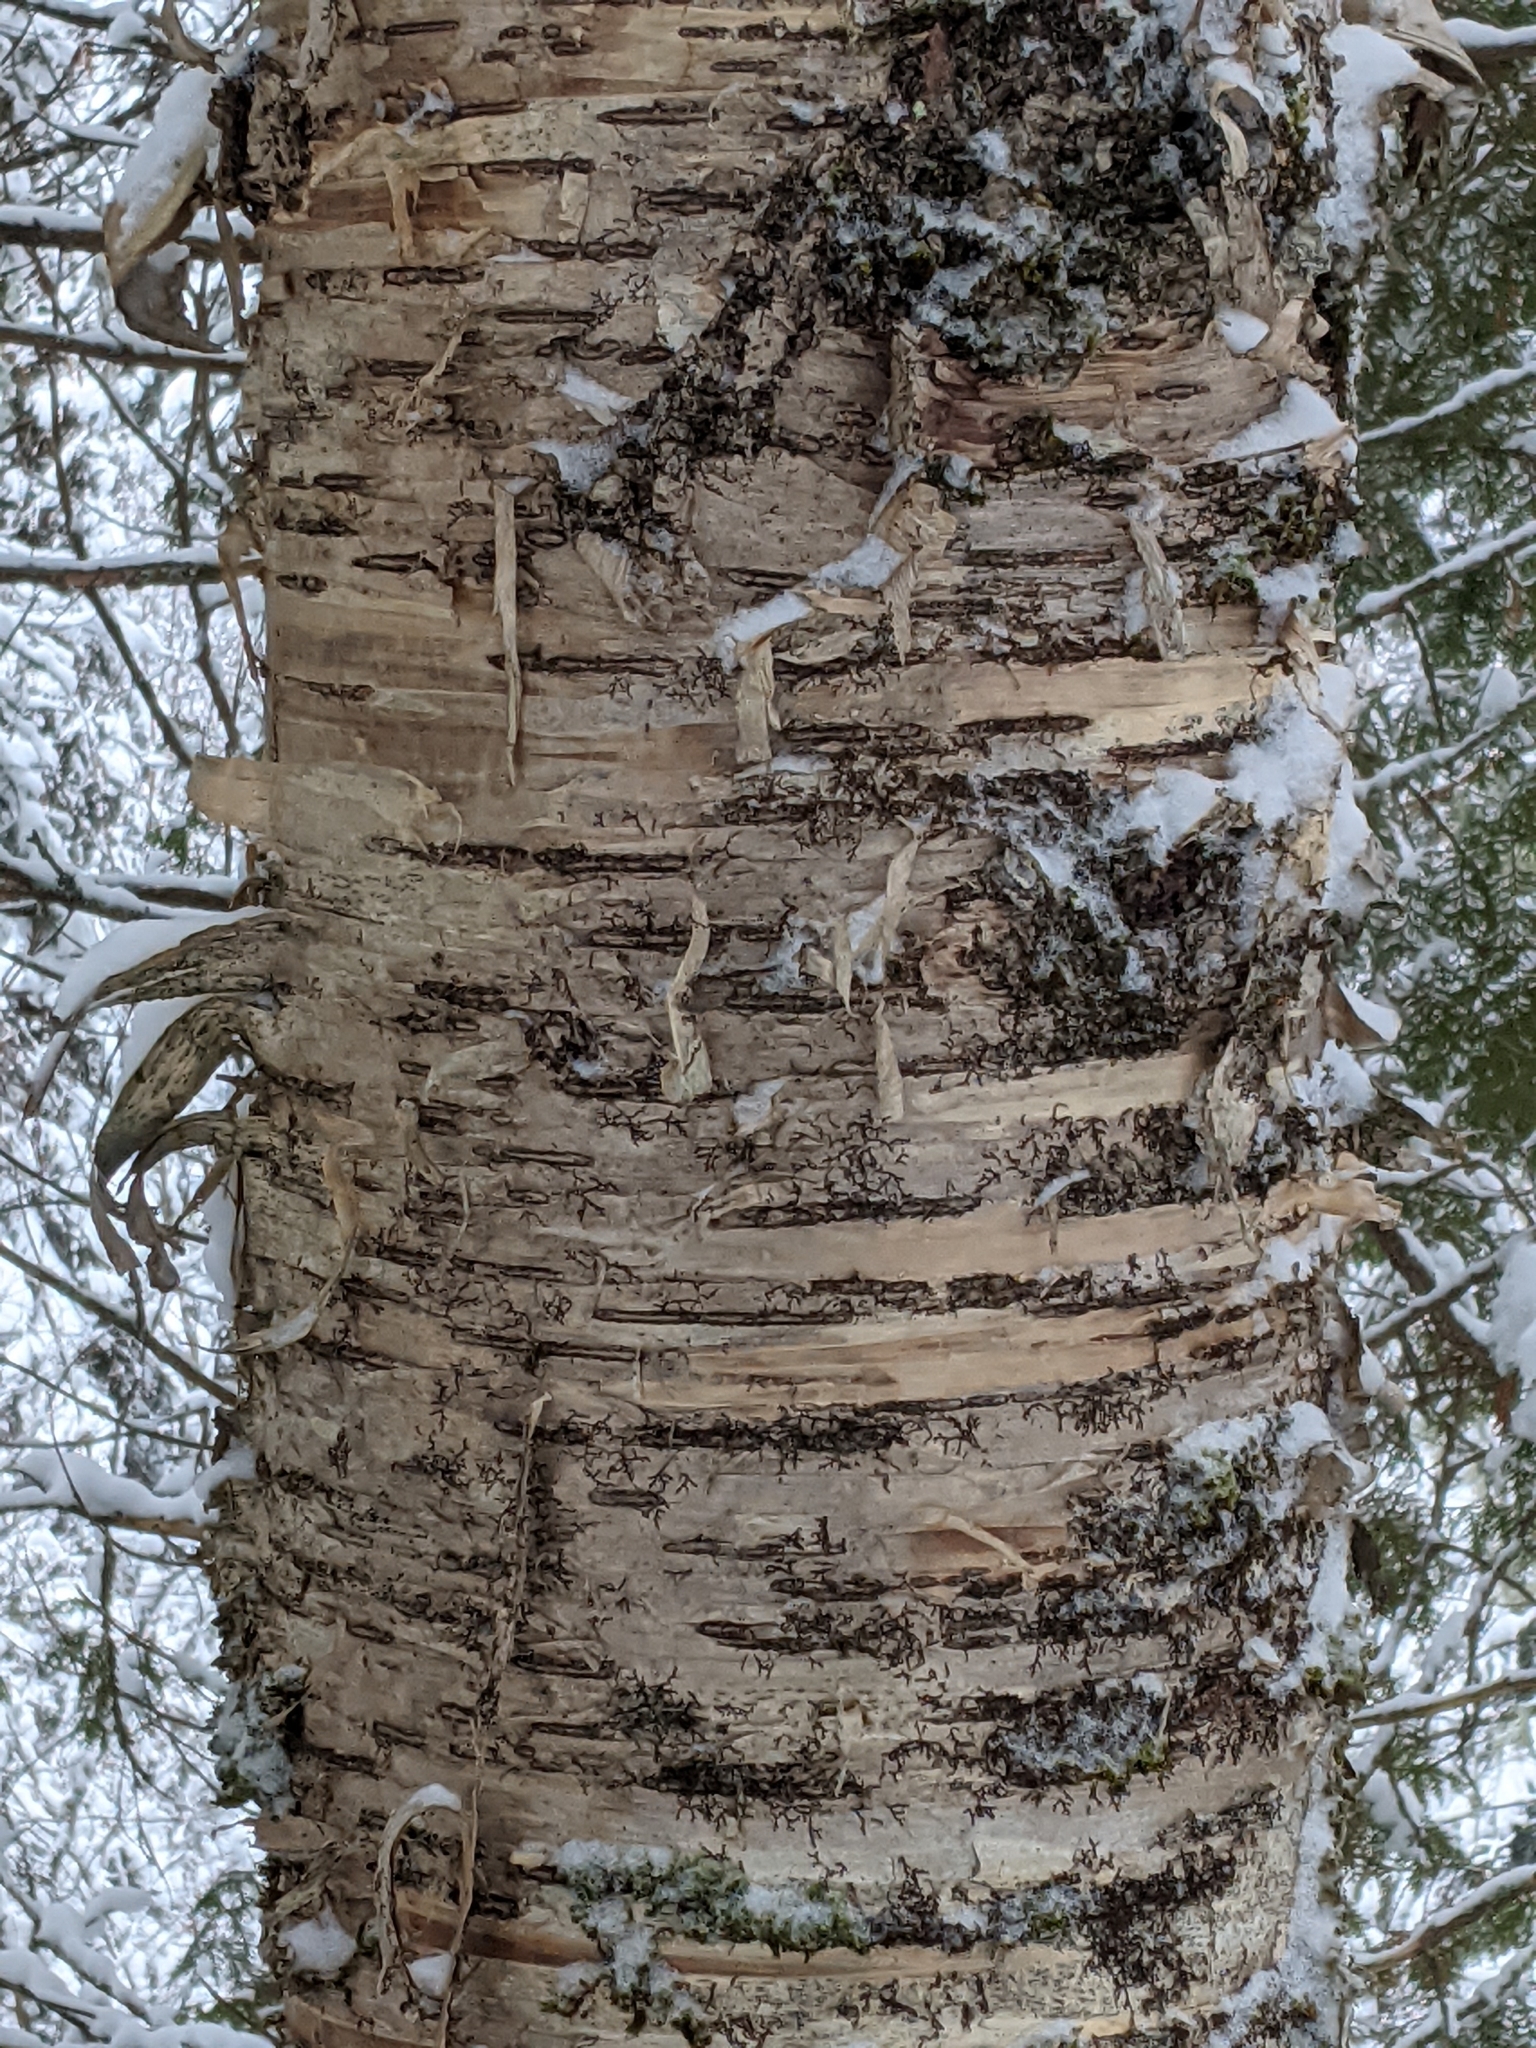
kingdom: Plantae
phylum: Tracheophyta
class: Magnoliopsida
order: Fagales
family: Betulaceae
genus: Betula
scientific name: Betula alleghaniensis
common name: Yellow birch
